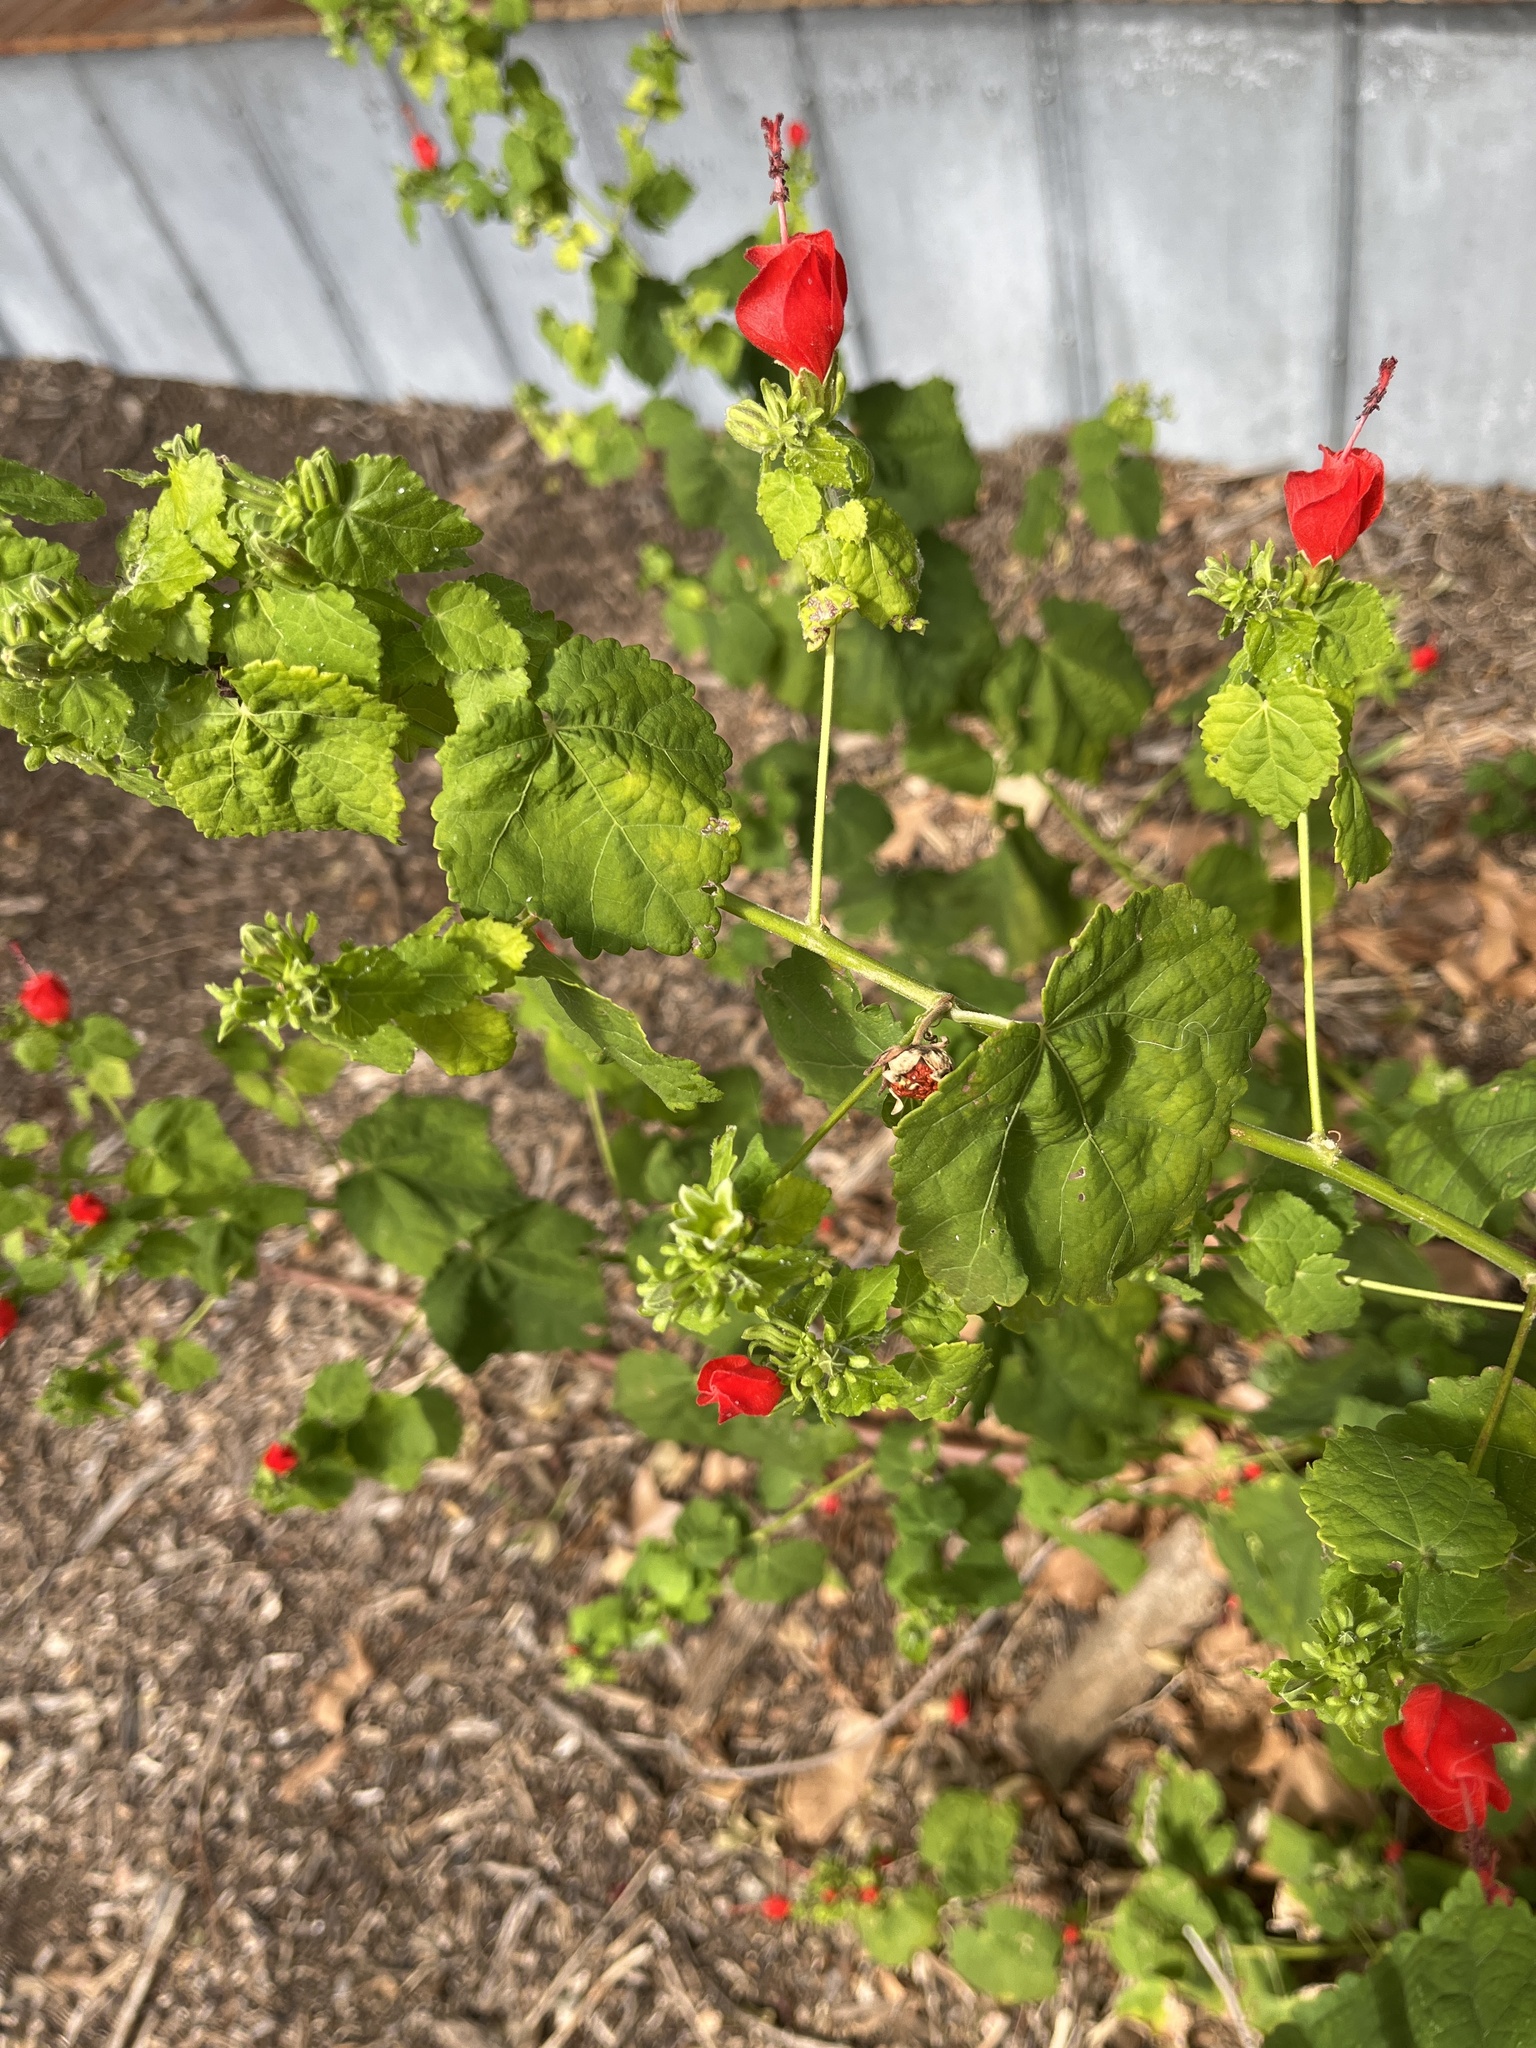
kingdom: Plantae
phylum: Tracheophyta
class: Magnoliopsida
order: Malvales
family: Malvaceae
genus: Malvaviscus
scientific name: Malvaviscus arboreus
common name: Wax mallow
